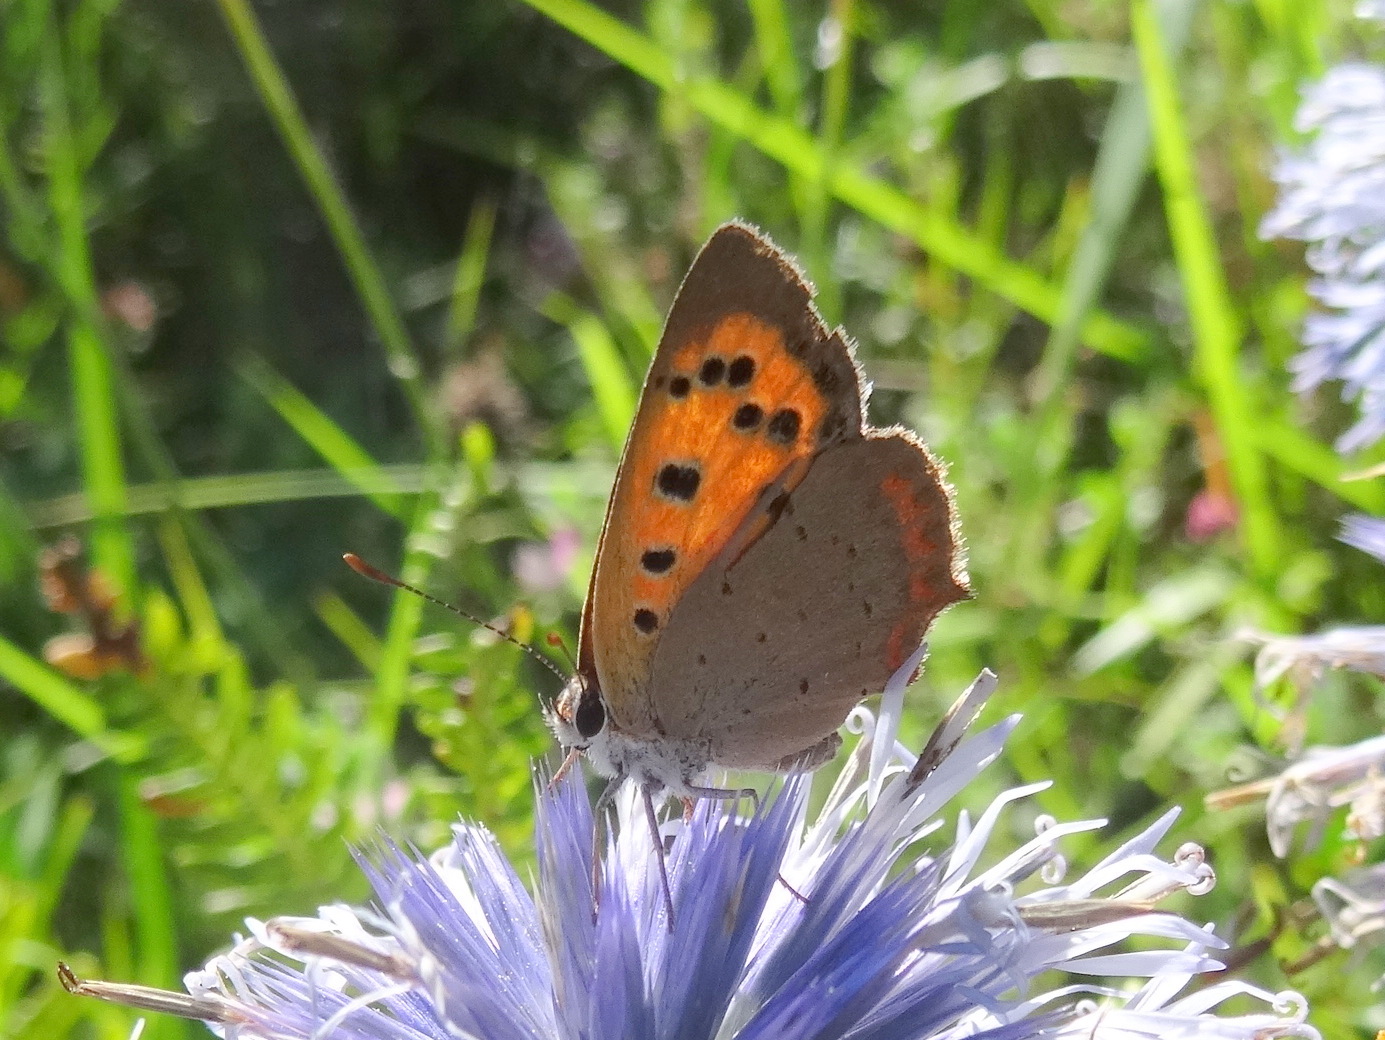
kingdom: Animalia
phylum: Arthropoda
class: Insecta
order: Lepidoptera
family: Lycaenidae
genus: Lycaena
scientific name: Lycaena phlaeas
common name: Small copper
